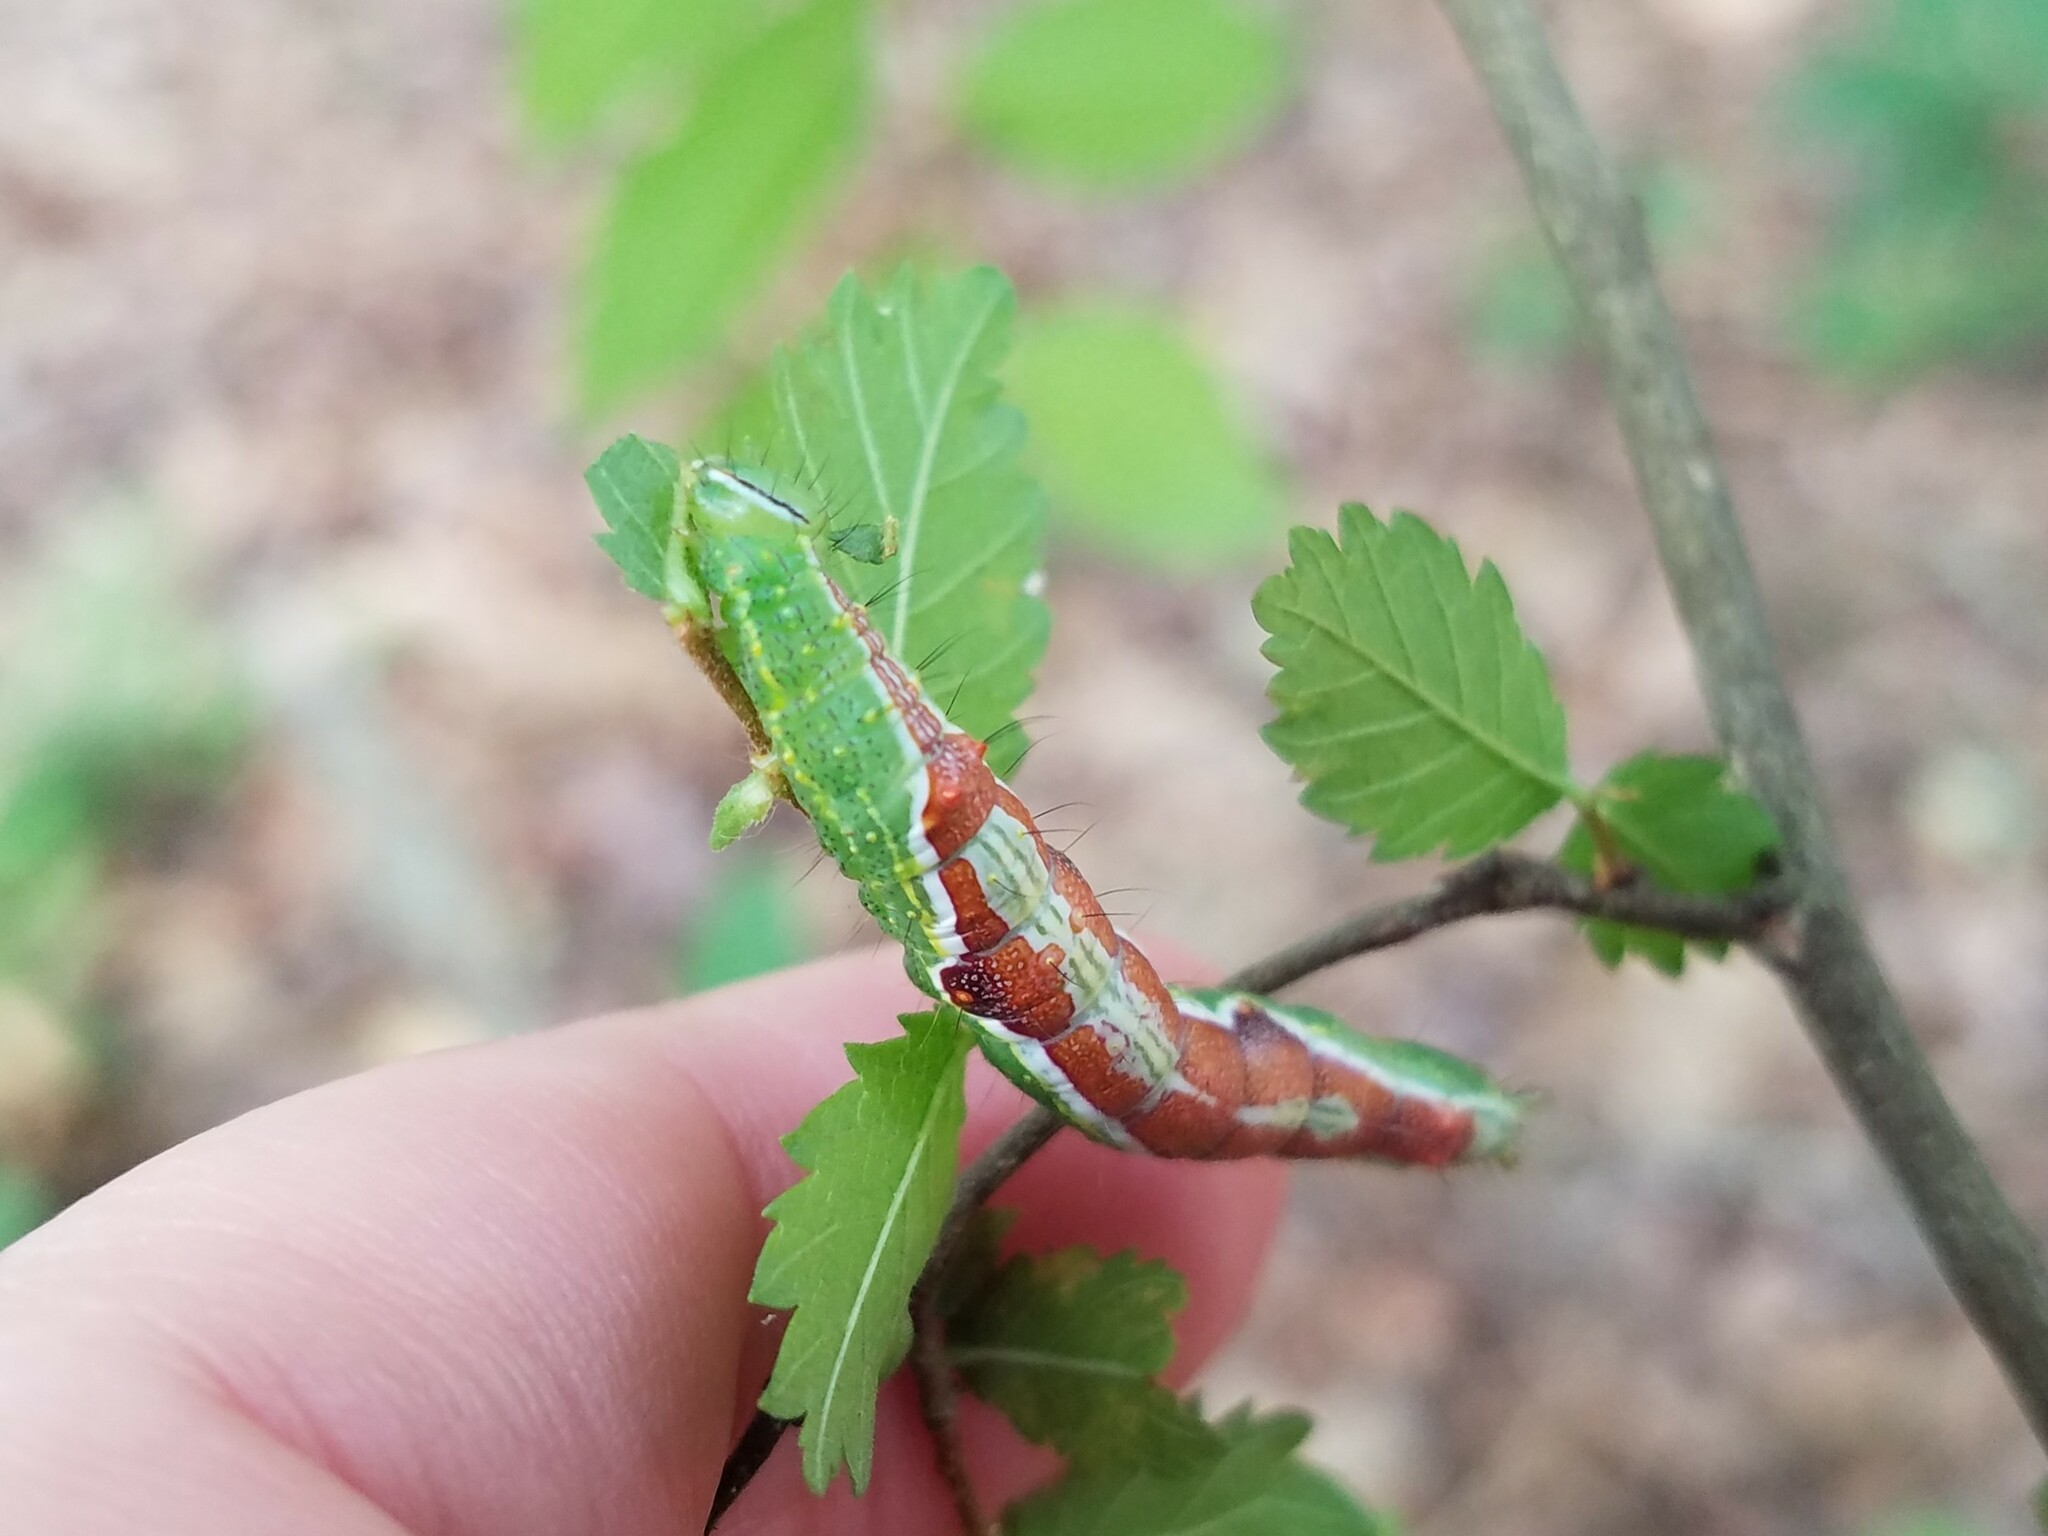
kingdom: Animalia
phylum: Arthropoda
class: Insecta
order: Lepidoptera
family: Notodontidae
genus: Lochmaeus
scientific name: Lochmaeus bilineata
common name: Double-lined prominent
